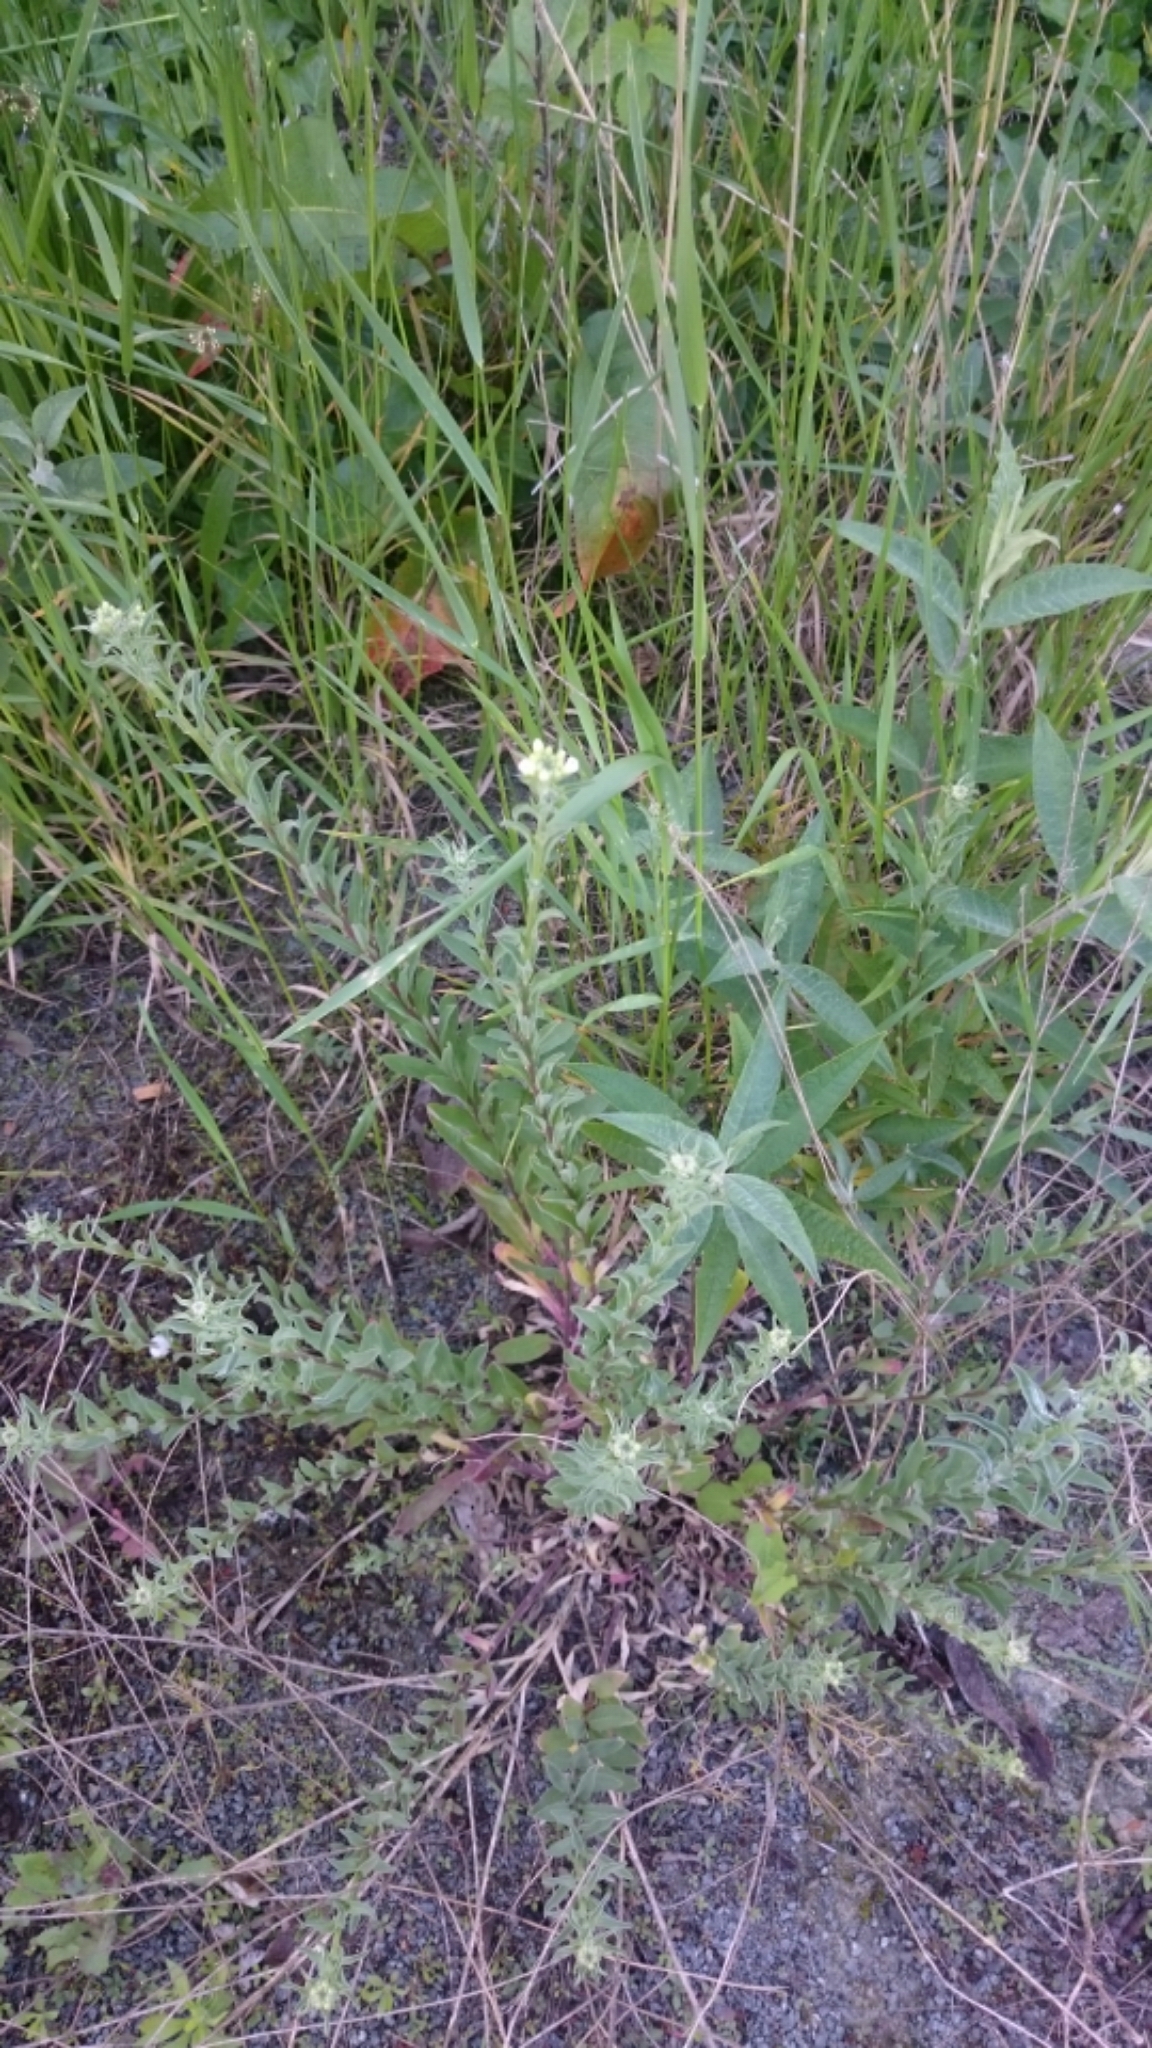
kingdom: Plantae
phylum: Tracheophyta
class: Magnoliopsida
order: Brassicales
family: Brassicaceae
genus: Berteroa
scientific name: Berteroa incana
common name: Hoary alison
